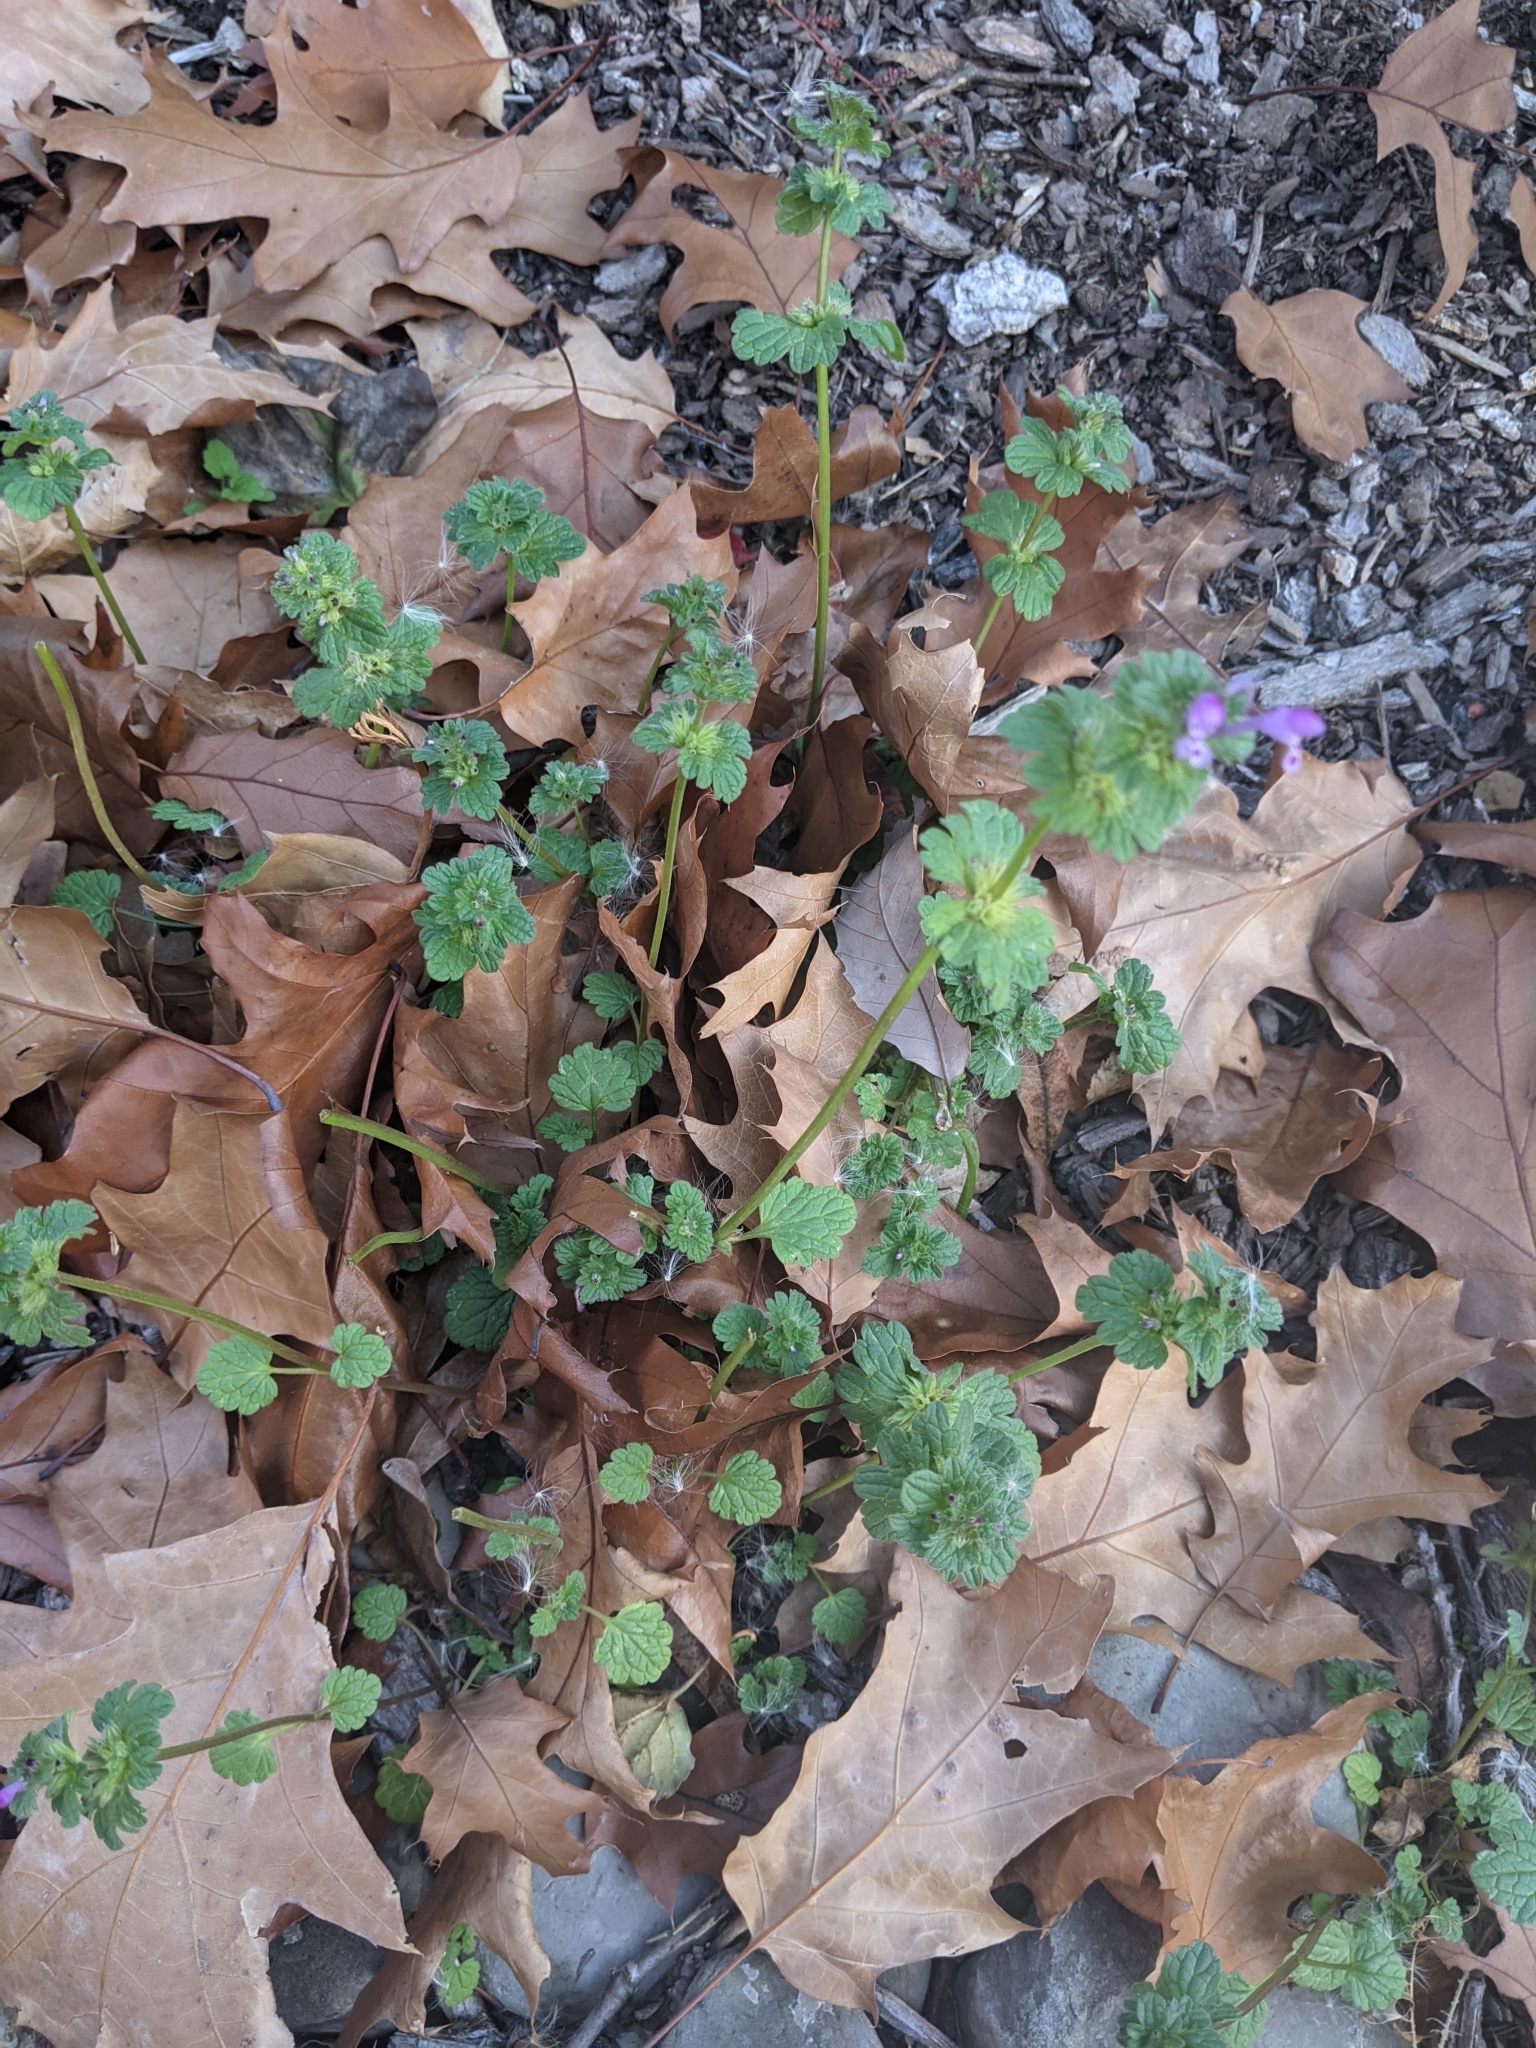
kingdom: Plantae
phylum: Tracheophyta
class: Magnoliopsida
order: Lamiales
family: Lamiaceae
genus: Lamium
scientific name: Lamium amplexicaule
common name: Henbit dead-nettle
